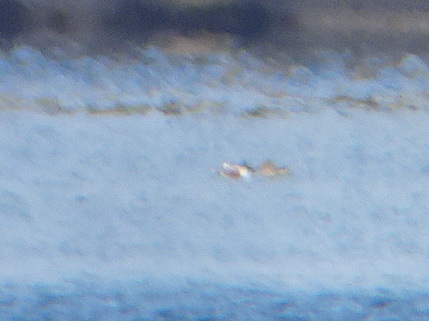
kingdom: Animalia
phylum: Chordata
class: Aves
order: Anseriformes
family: Anatidae
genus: Spatula
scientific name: Spatula clypeata
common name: Northern shoveler
